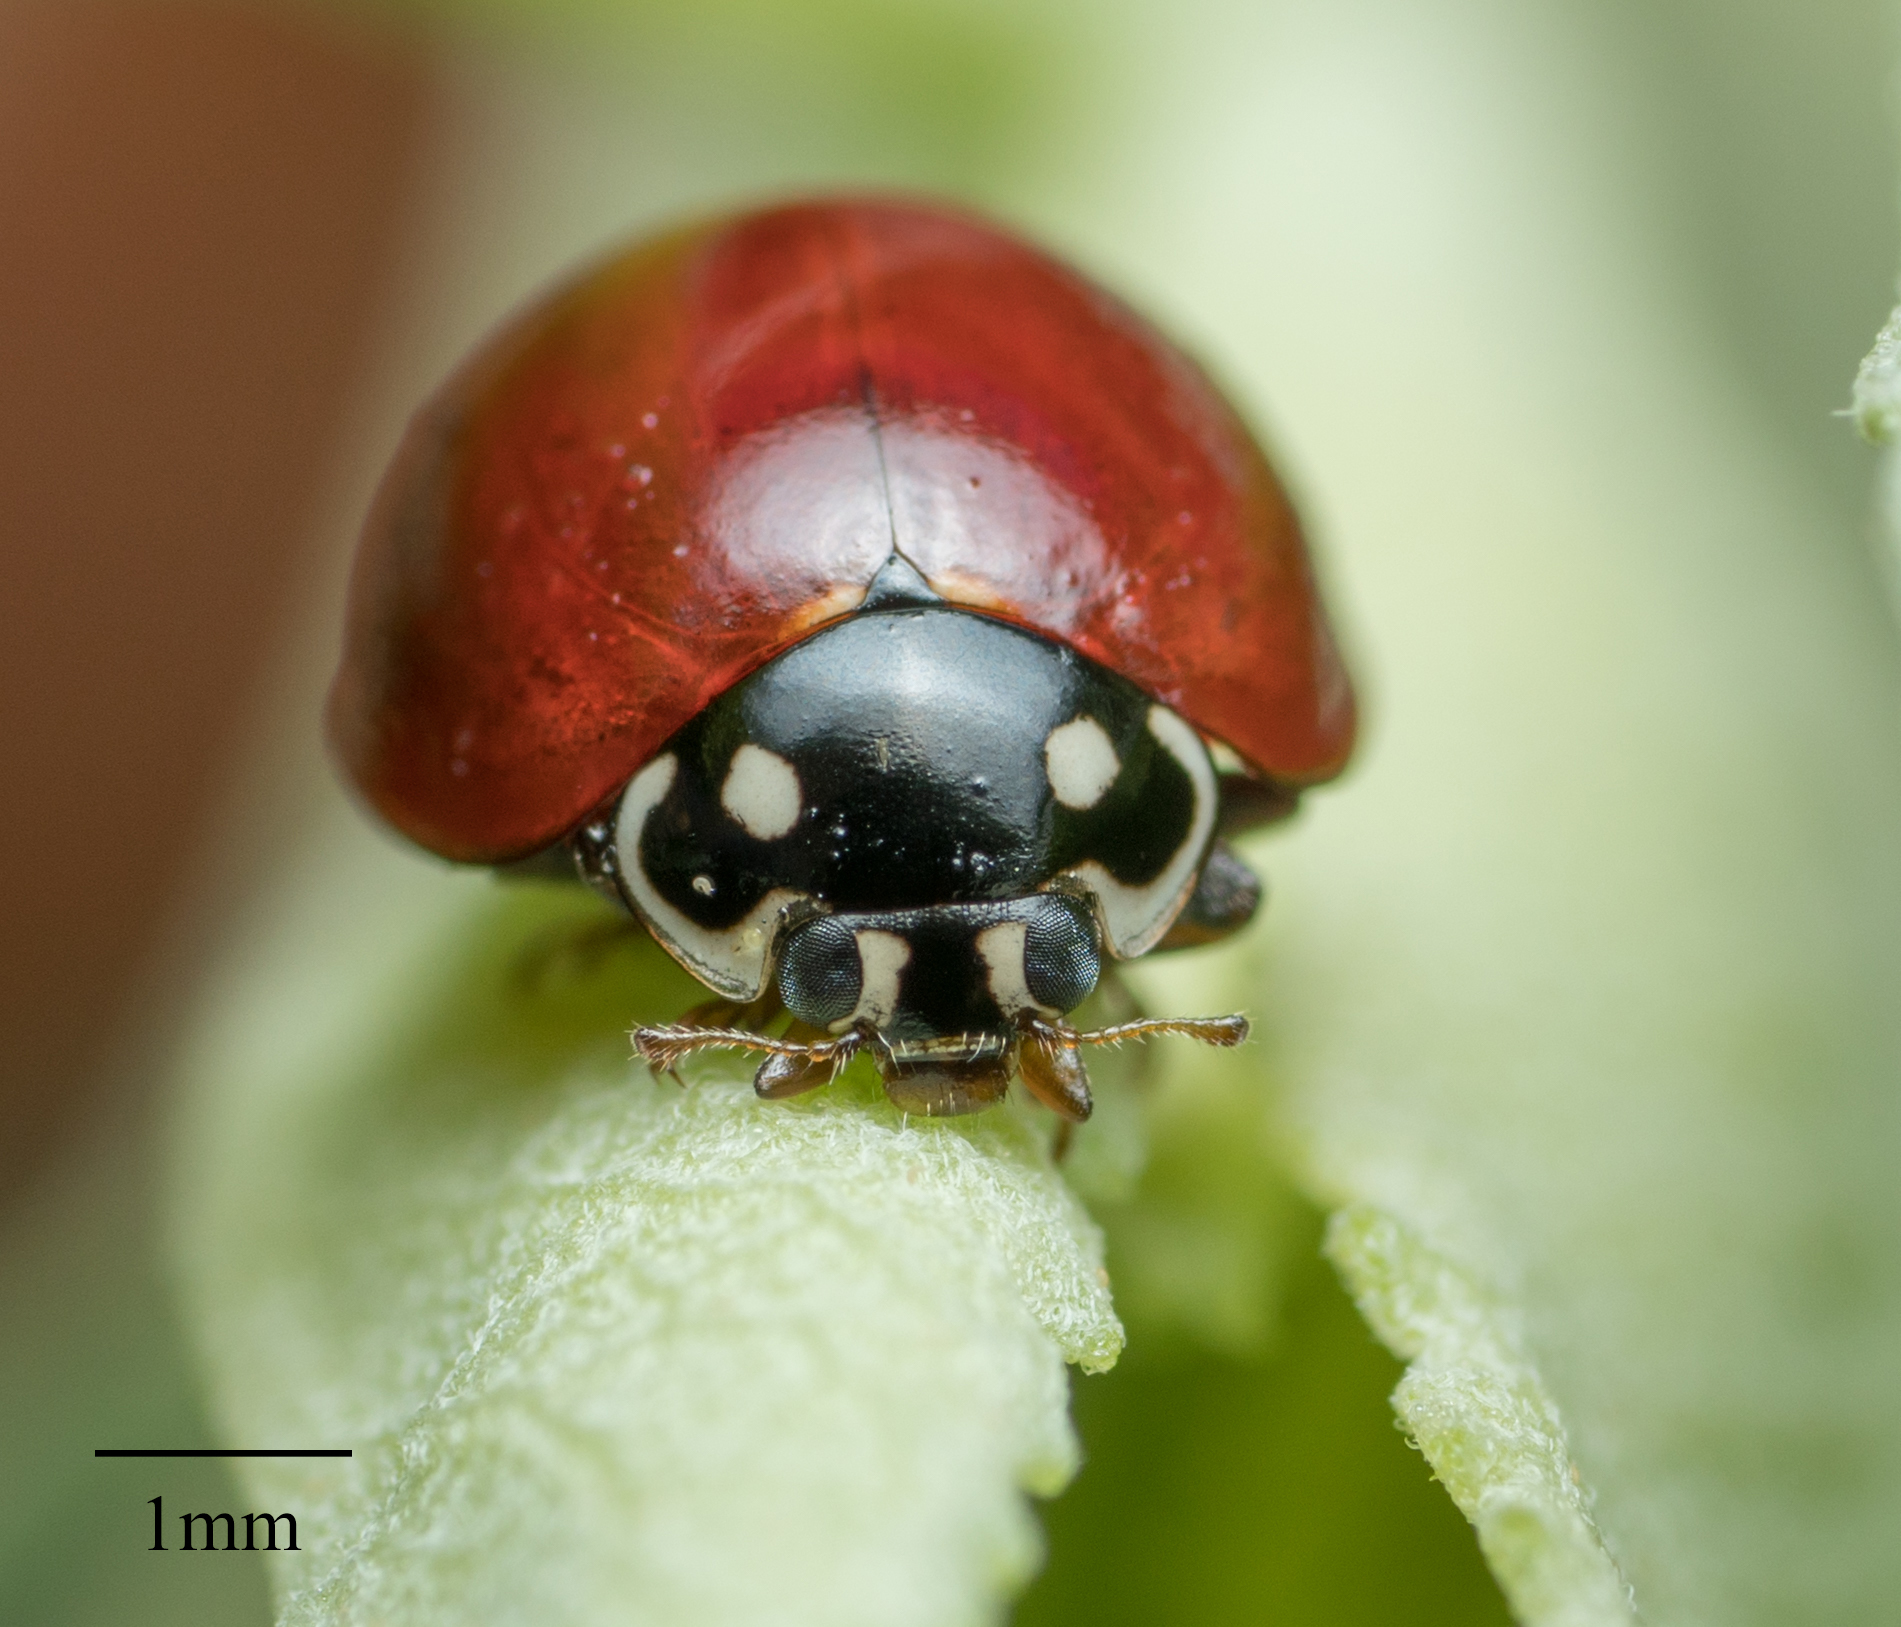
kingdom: Animalia
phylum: Arthropoda
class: Insecta
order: Coleoptera
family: Coccinellidae
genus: Cycloneda
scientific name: Cycloneda sanguinea
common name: Ladybird beetle
